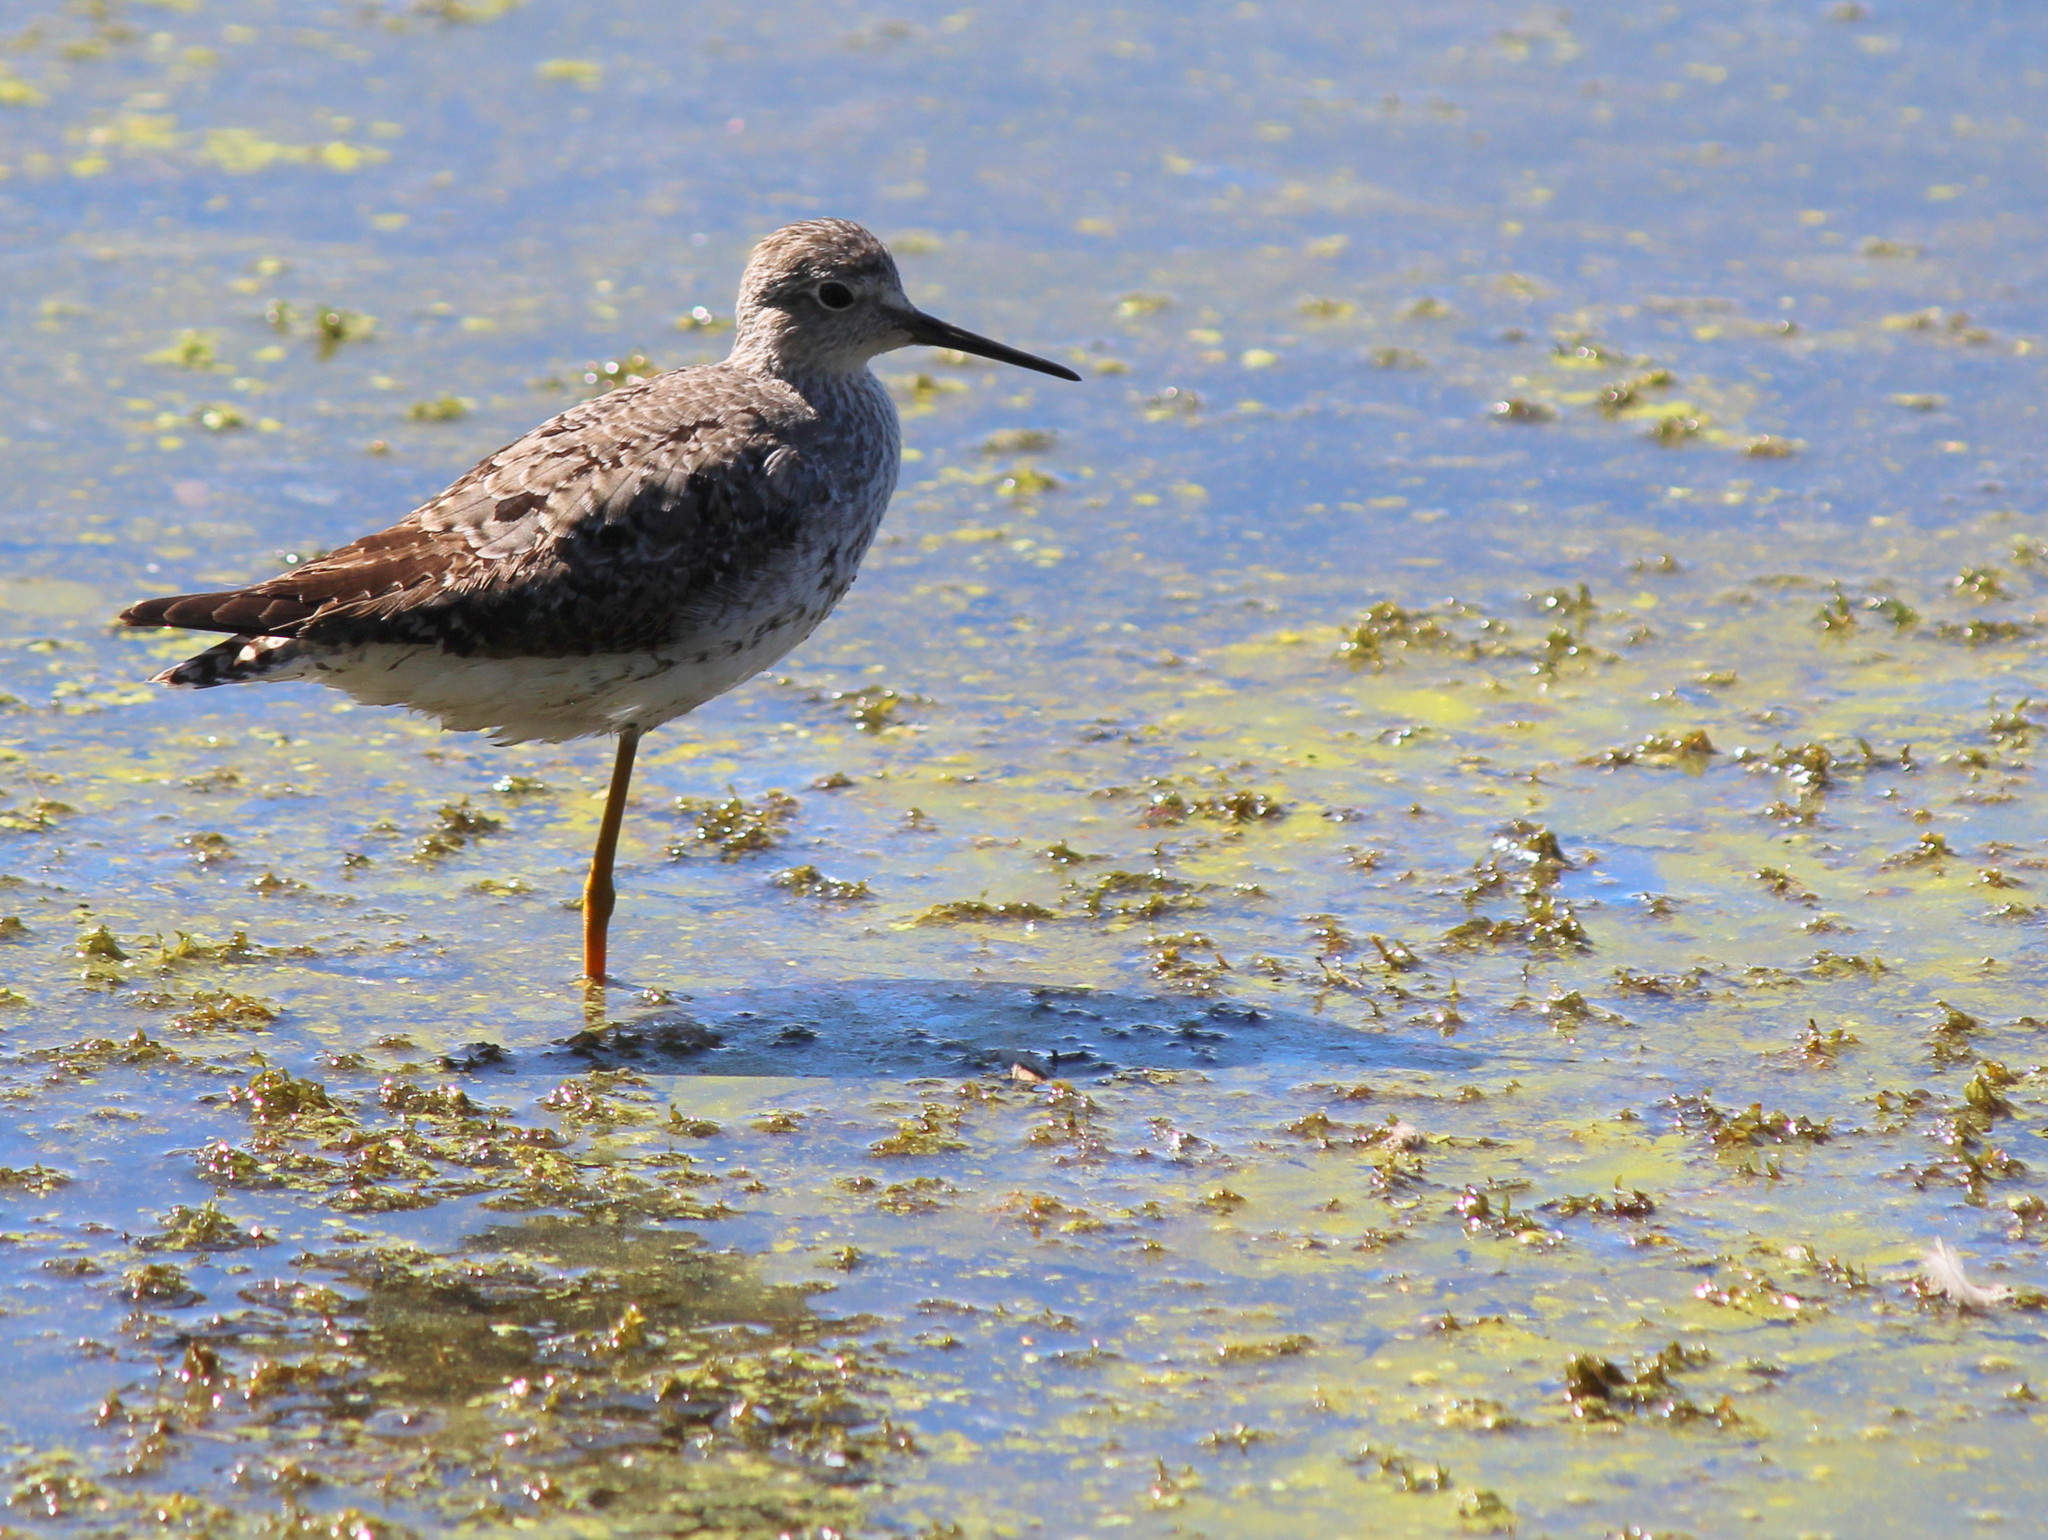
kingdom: Animalia
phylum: Chordata
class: Aves
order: Charadriiformes
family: Scolopacidae
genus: Tringa
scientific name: Tringa flavipes
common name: Lesser yellowlegs
